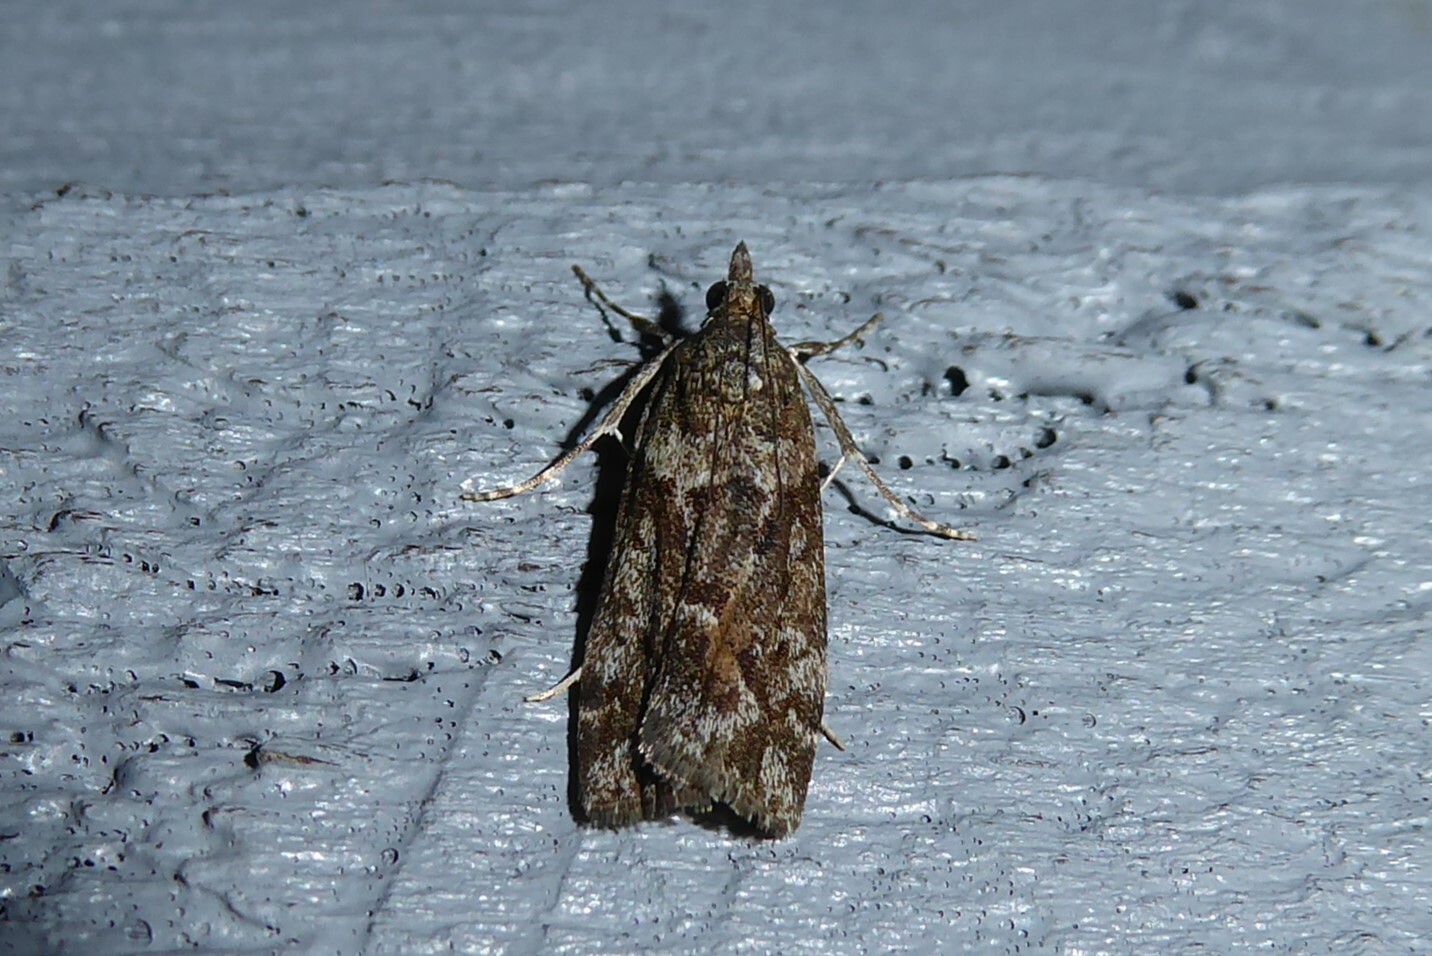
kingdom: Animalia
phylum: Arthropoda
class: Insecta
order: Lepidoptera
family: Crambidae
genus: Eudonia
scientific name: Eudonia submarginalis
